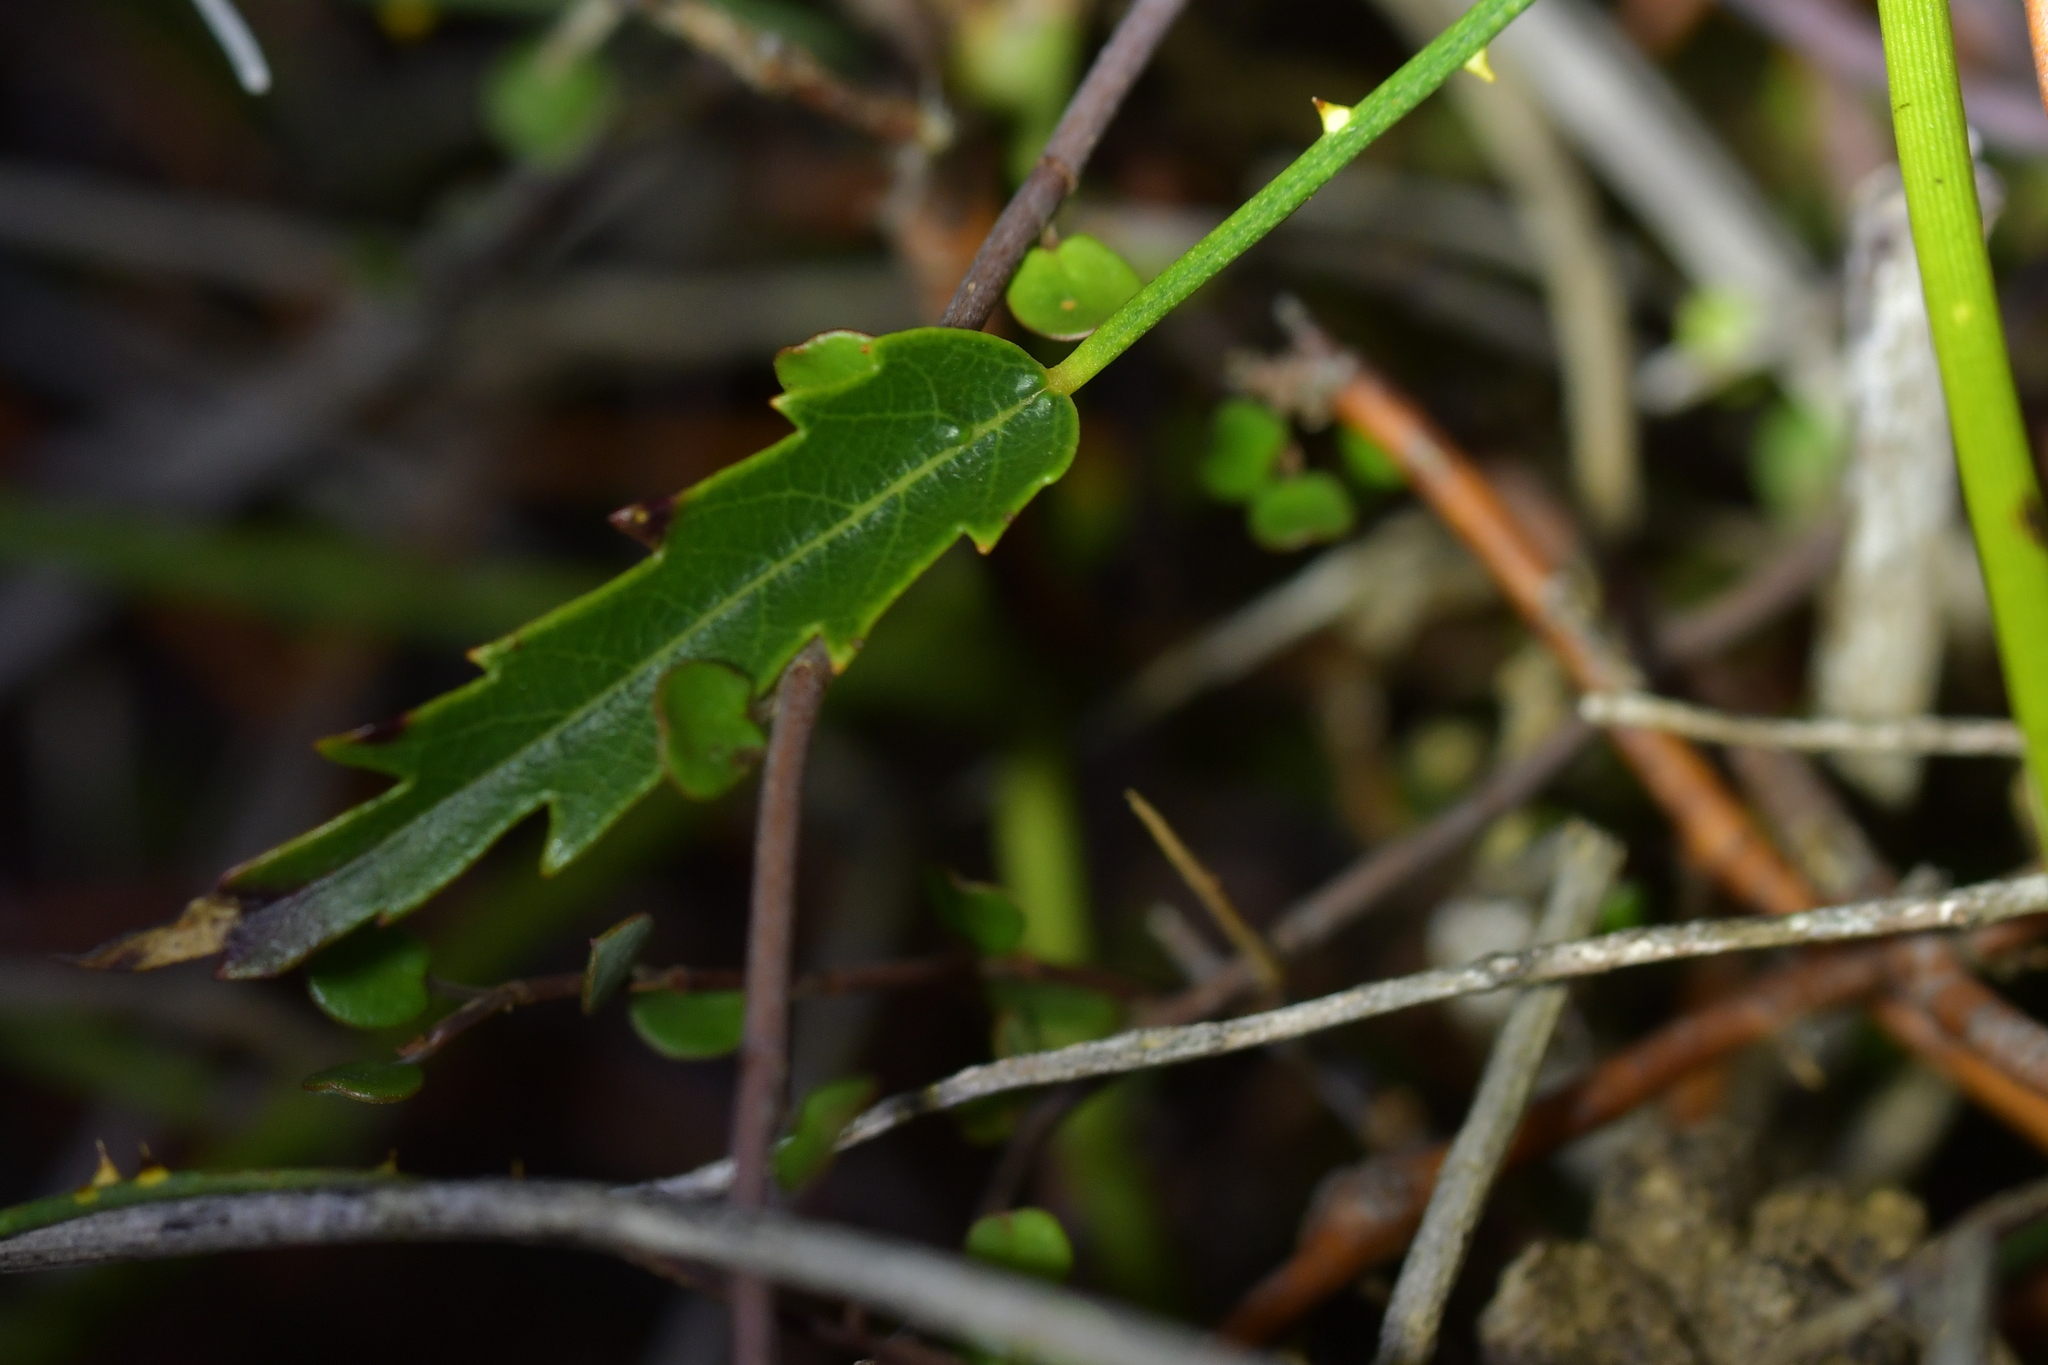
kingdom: Plantae
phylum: Tracheophyta
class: Magnoliopsida
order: Rosales
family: Rosaceae
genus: Rubus
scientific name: Rubus squarrosus
